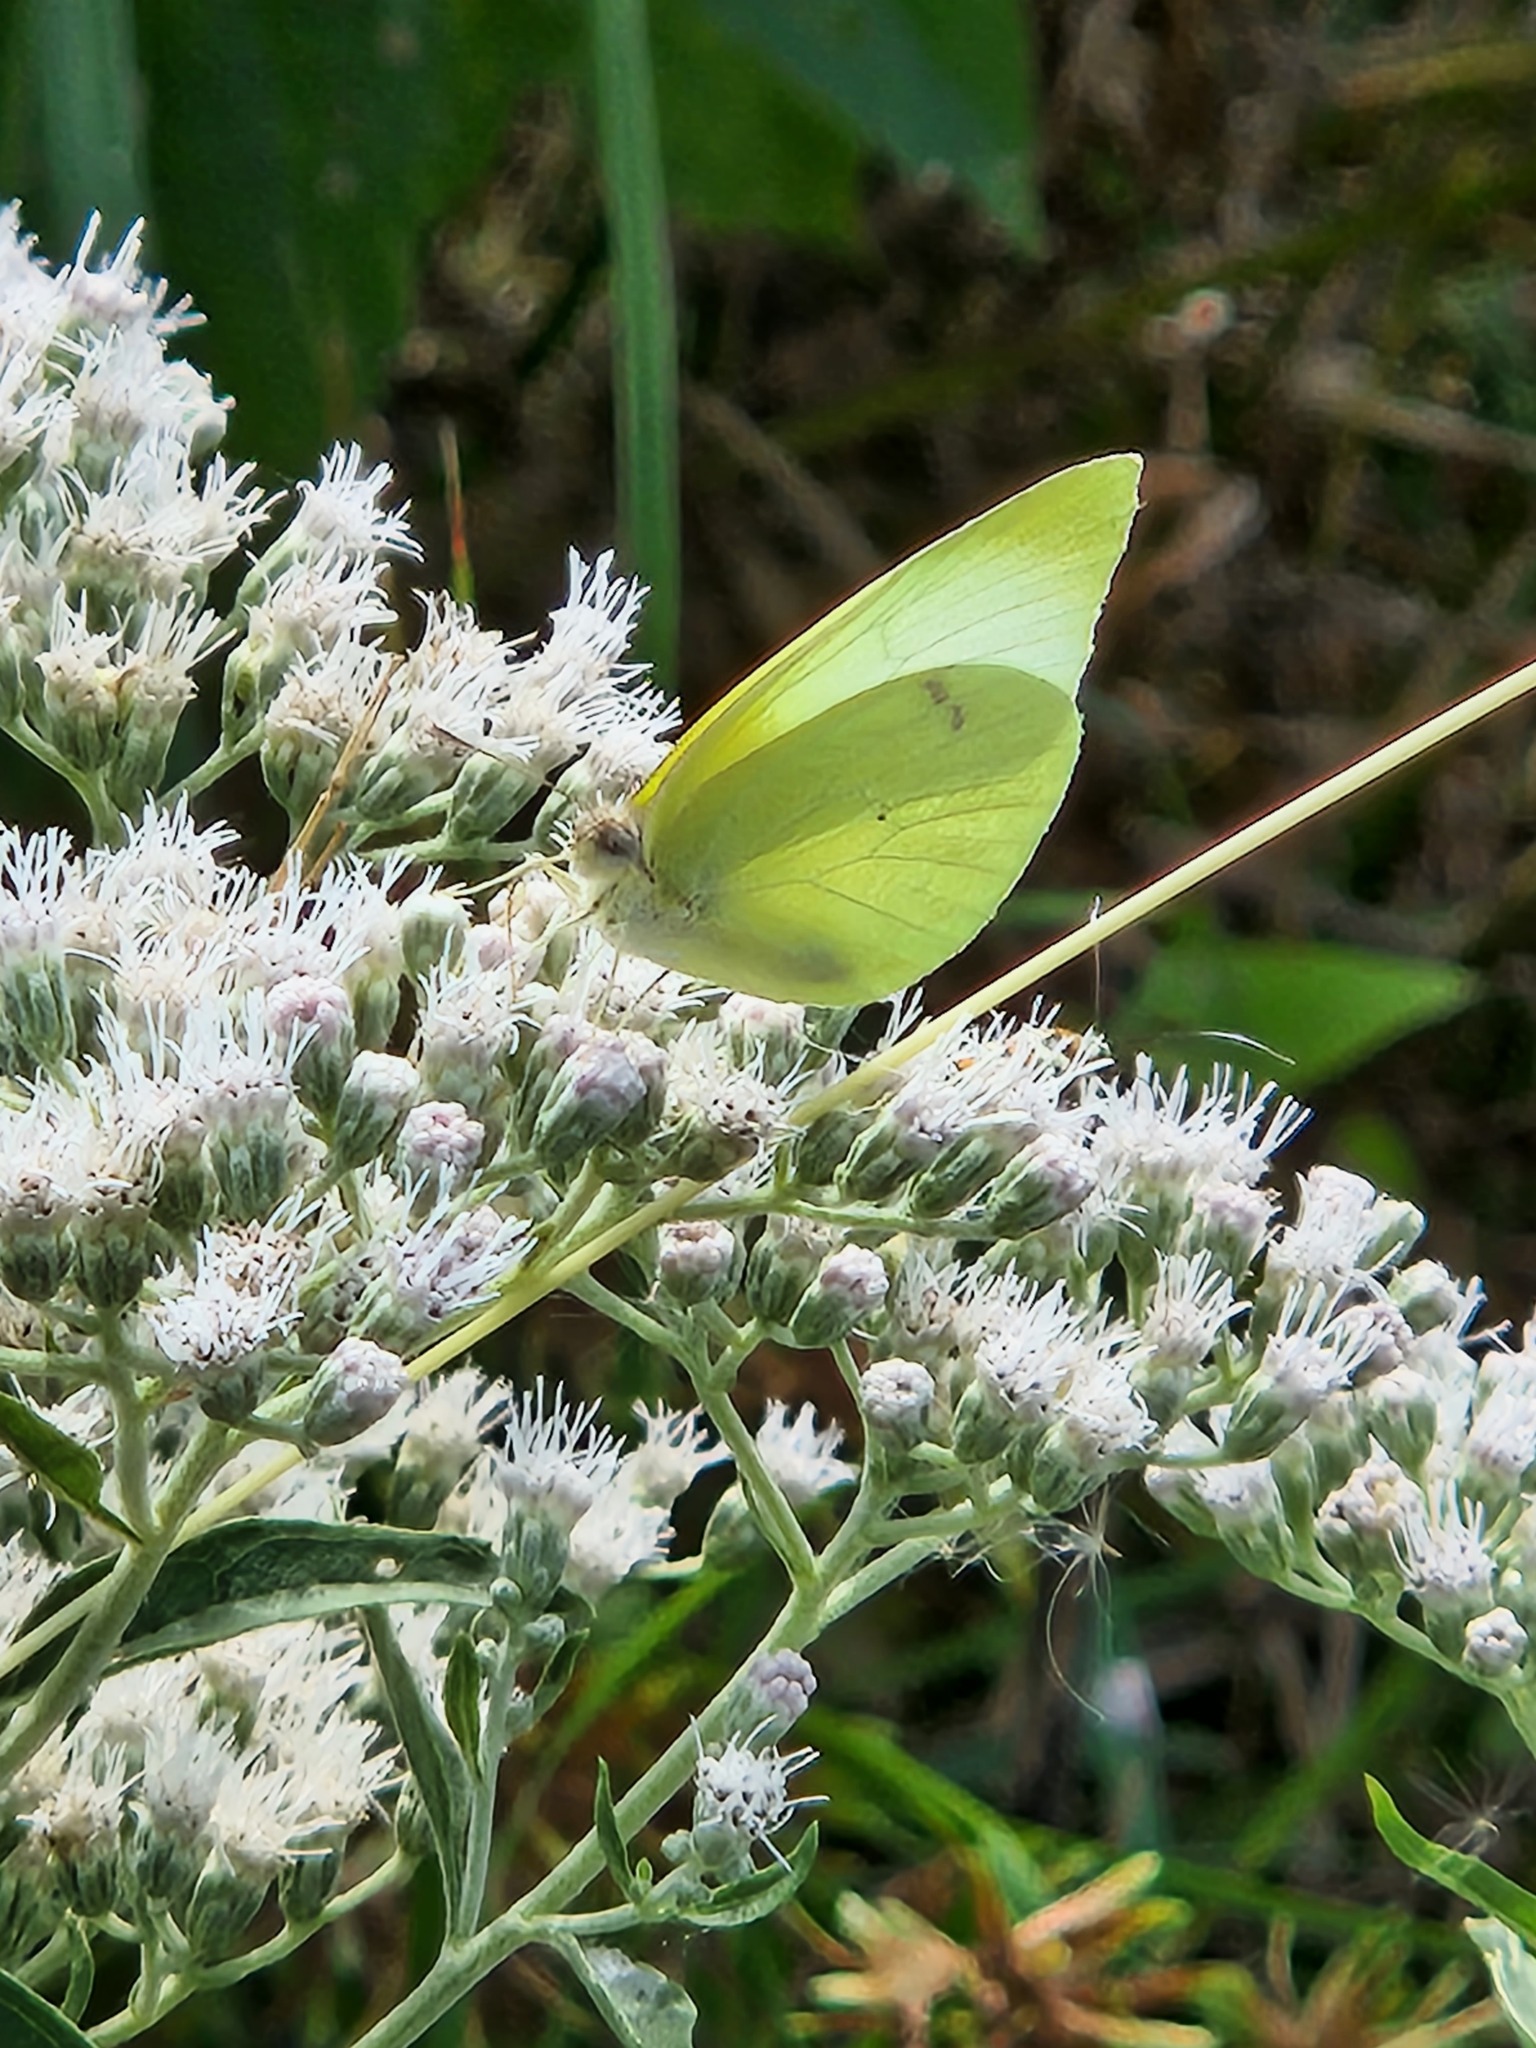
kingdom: Animalia
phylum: Arthropoda
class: Insecta
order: Lepidoptera
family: Pieridae
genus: Kricogonia
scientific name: Kricogonia lyside
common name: Guayacan sulphur,
